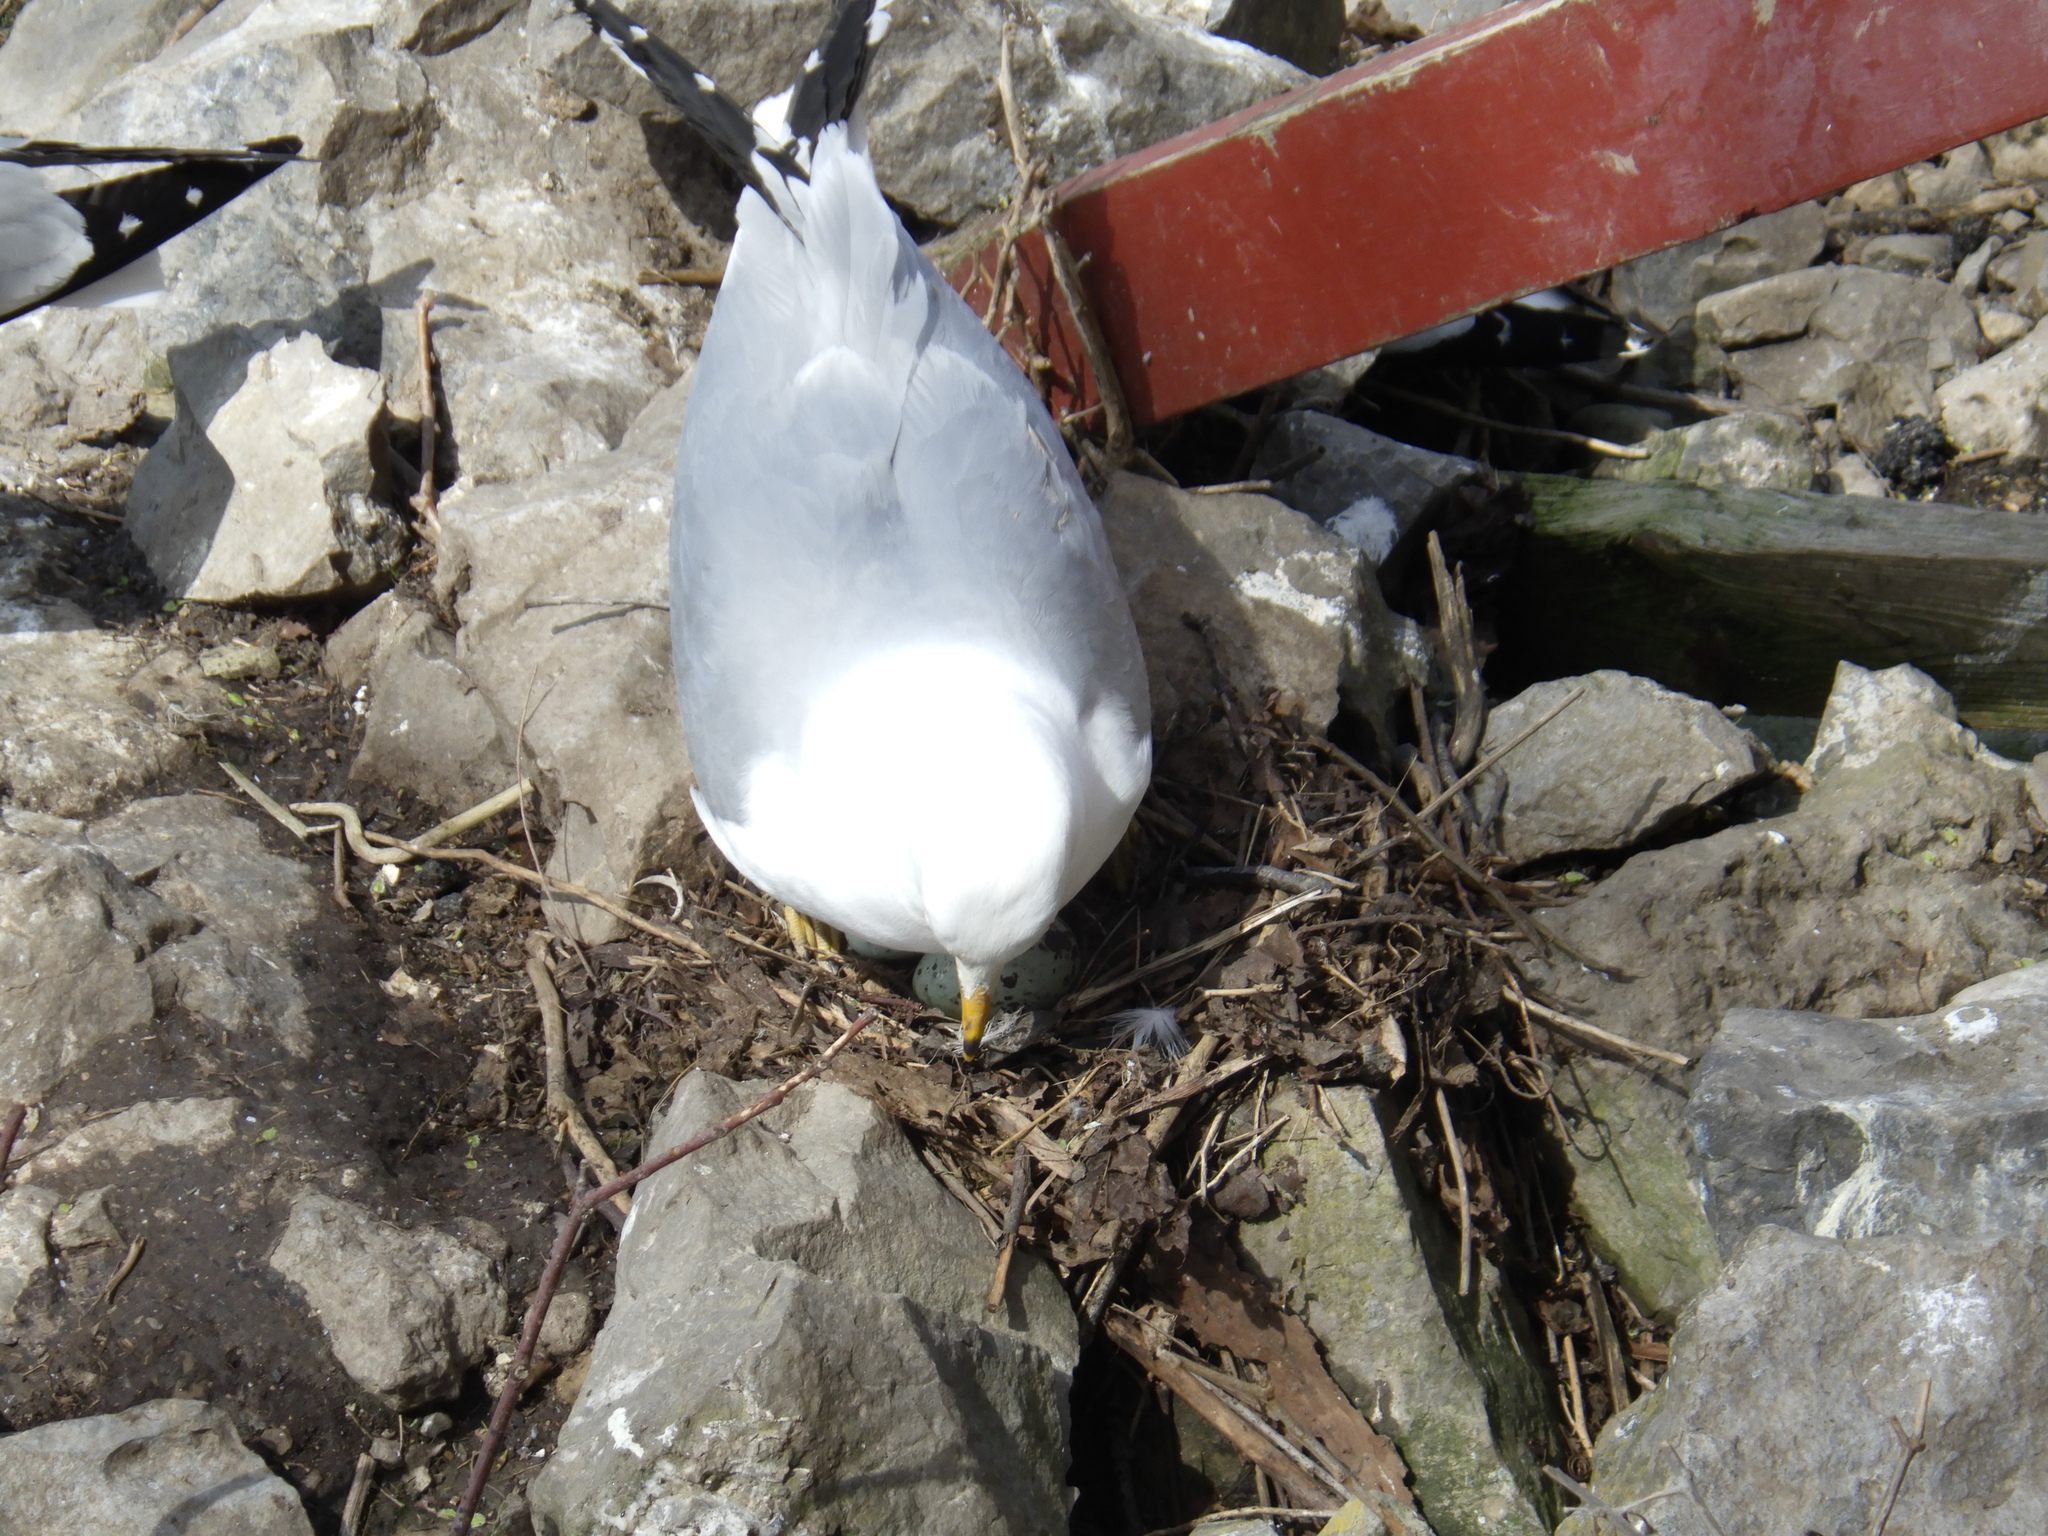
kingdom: Animalia
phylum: Chordata
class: Aves
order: Charadriiformes
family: Laridae
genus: Larus
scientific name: Larus delawarensis
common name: Ring-billed gull
